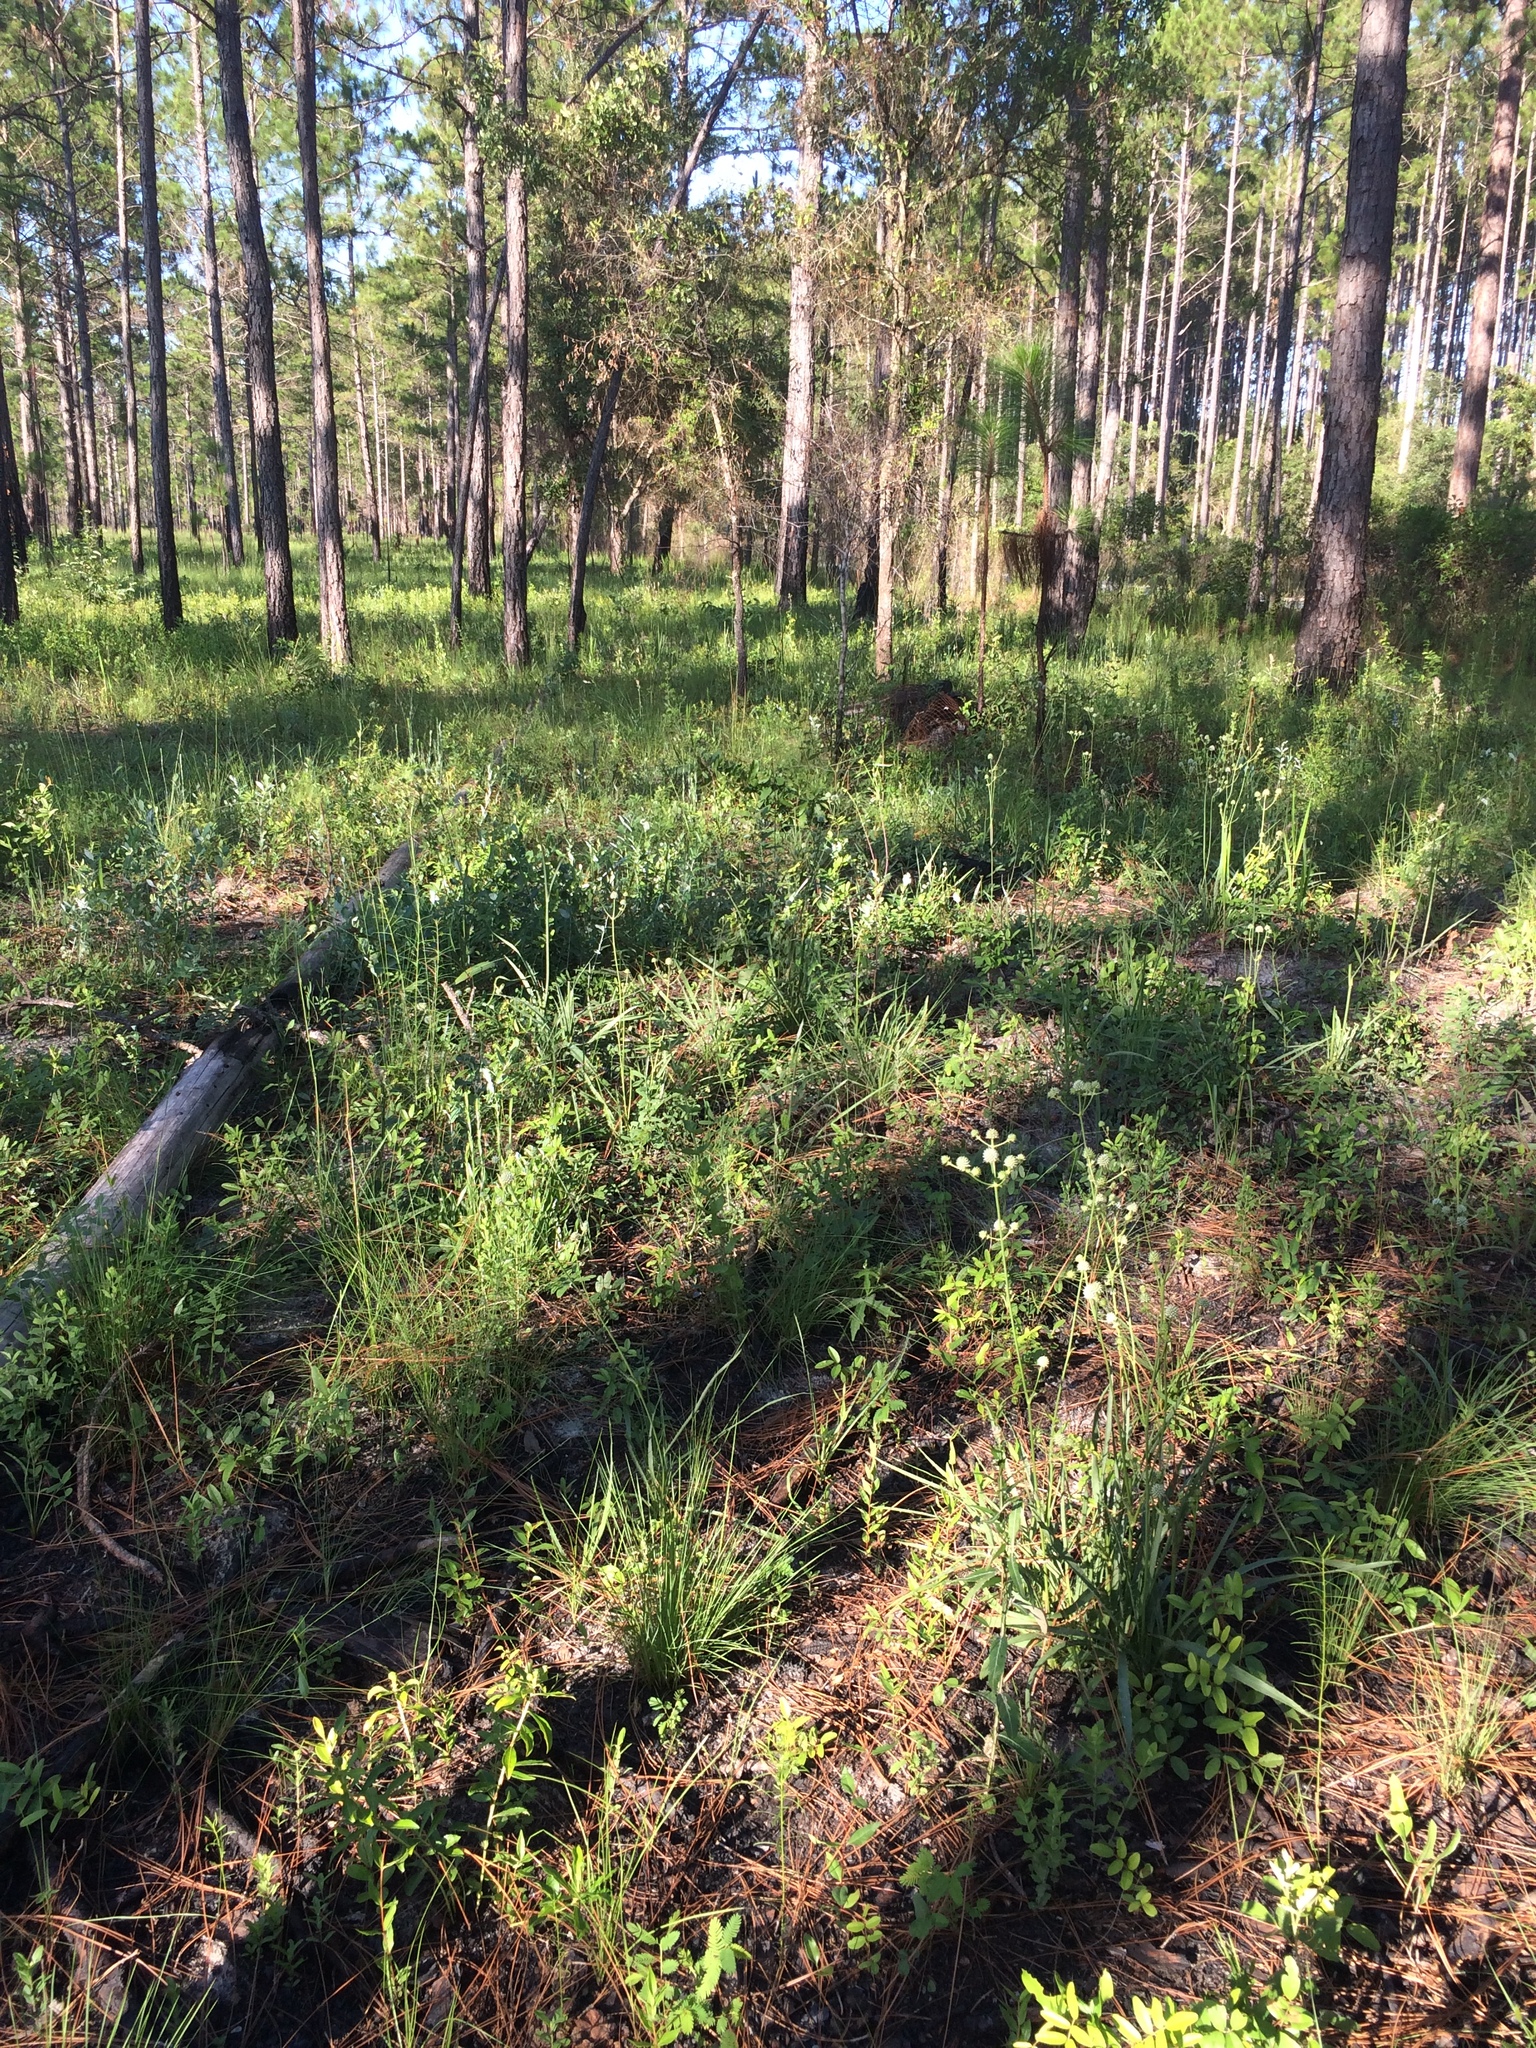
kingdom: Plantae
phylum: Tracheophyta
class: Magnoliopsida
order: Apiales
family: Apiaceae
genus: Eryngium
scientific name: Eryngium yuccifolium
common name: Button eryngo
